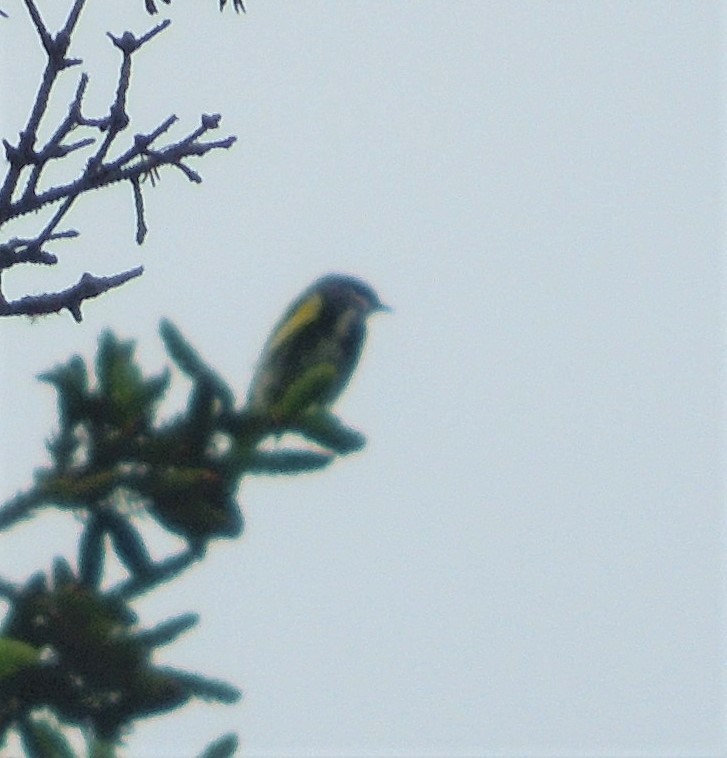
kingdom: Animalia
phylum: Chordata
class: Aves
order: Passeriformes
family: Parulidae
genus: Setophaga
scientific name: Setophaga coronata
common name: Myrtle warbler
